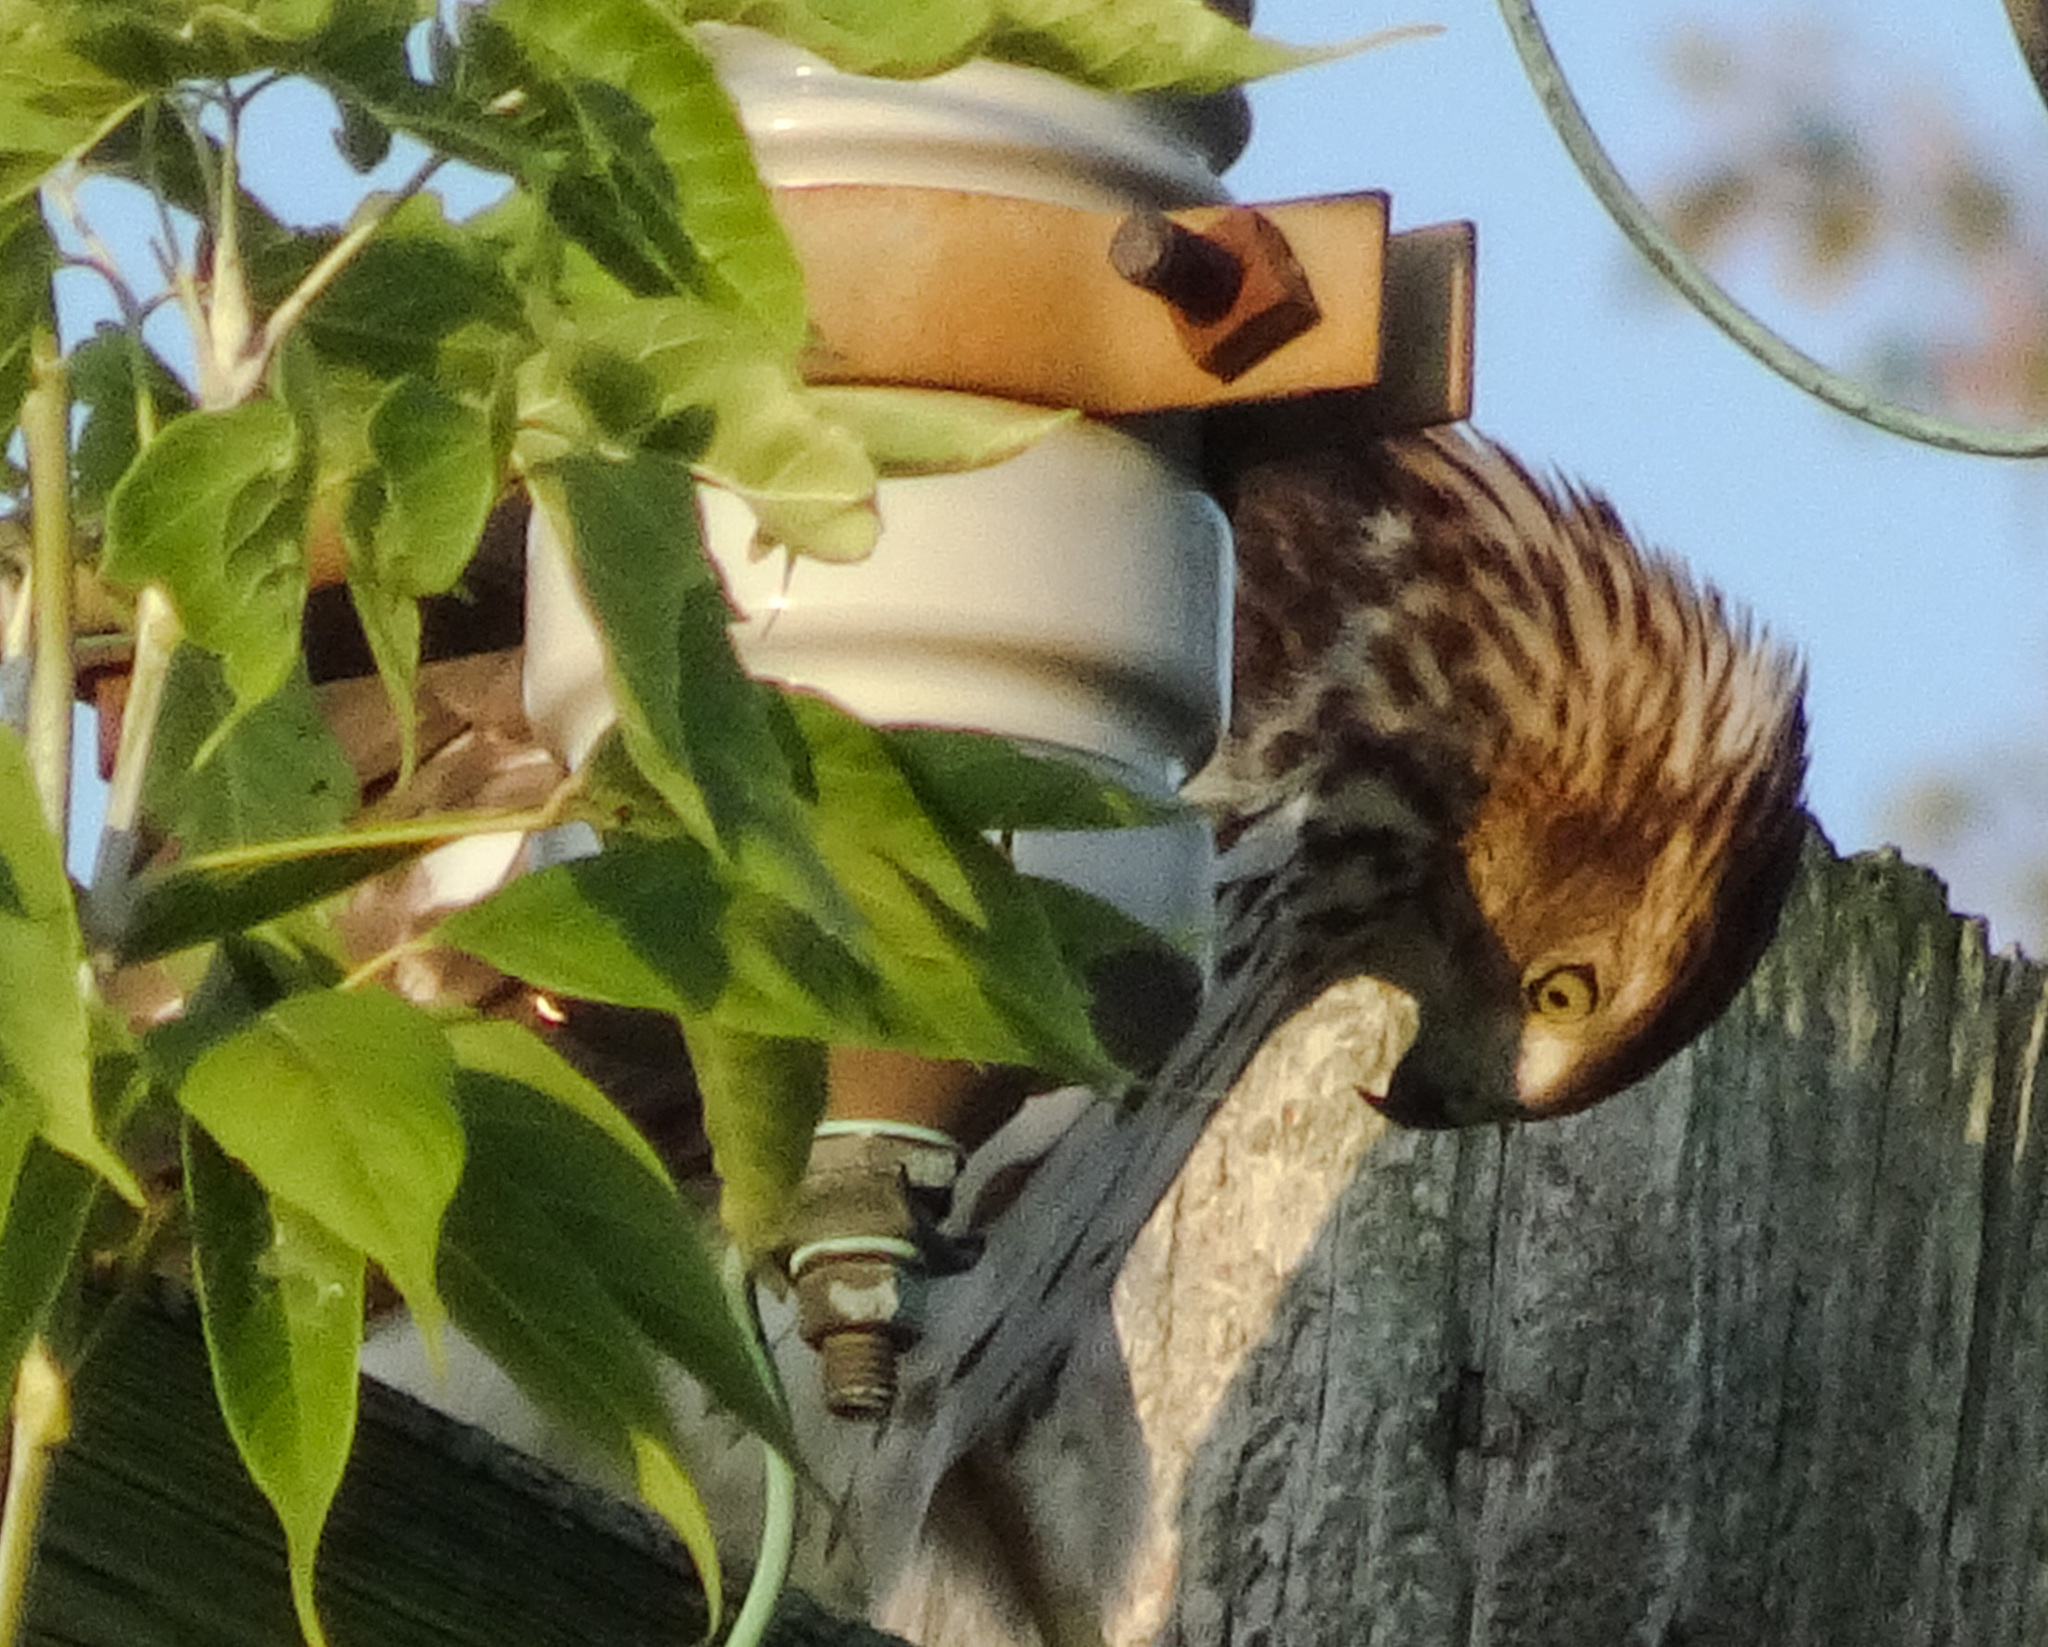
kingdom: Animalia
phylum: Chordata
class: Aves
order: Accipitriformes
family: Accipitridae
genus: Accipiter
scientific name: Accipiter cooperii
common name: Cooper's hawk
